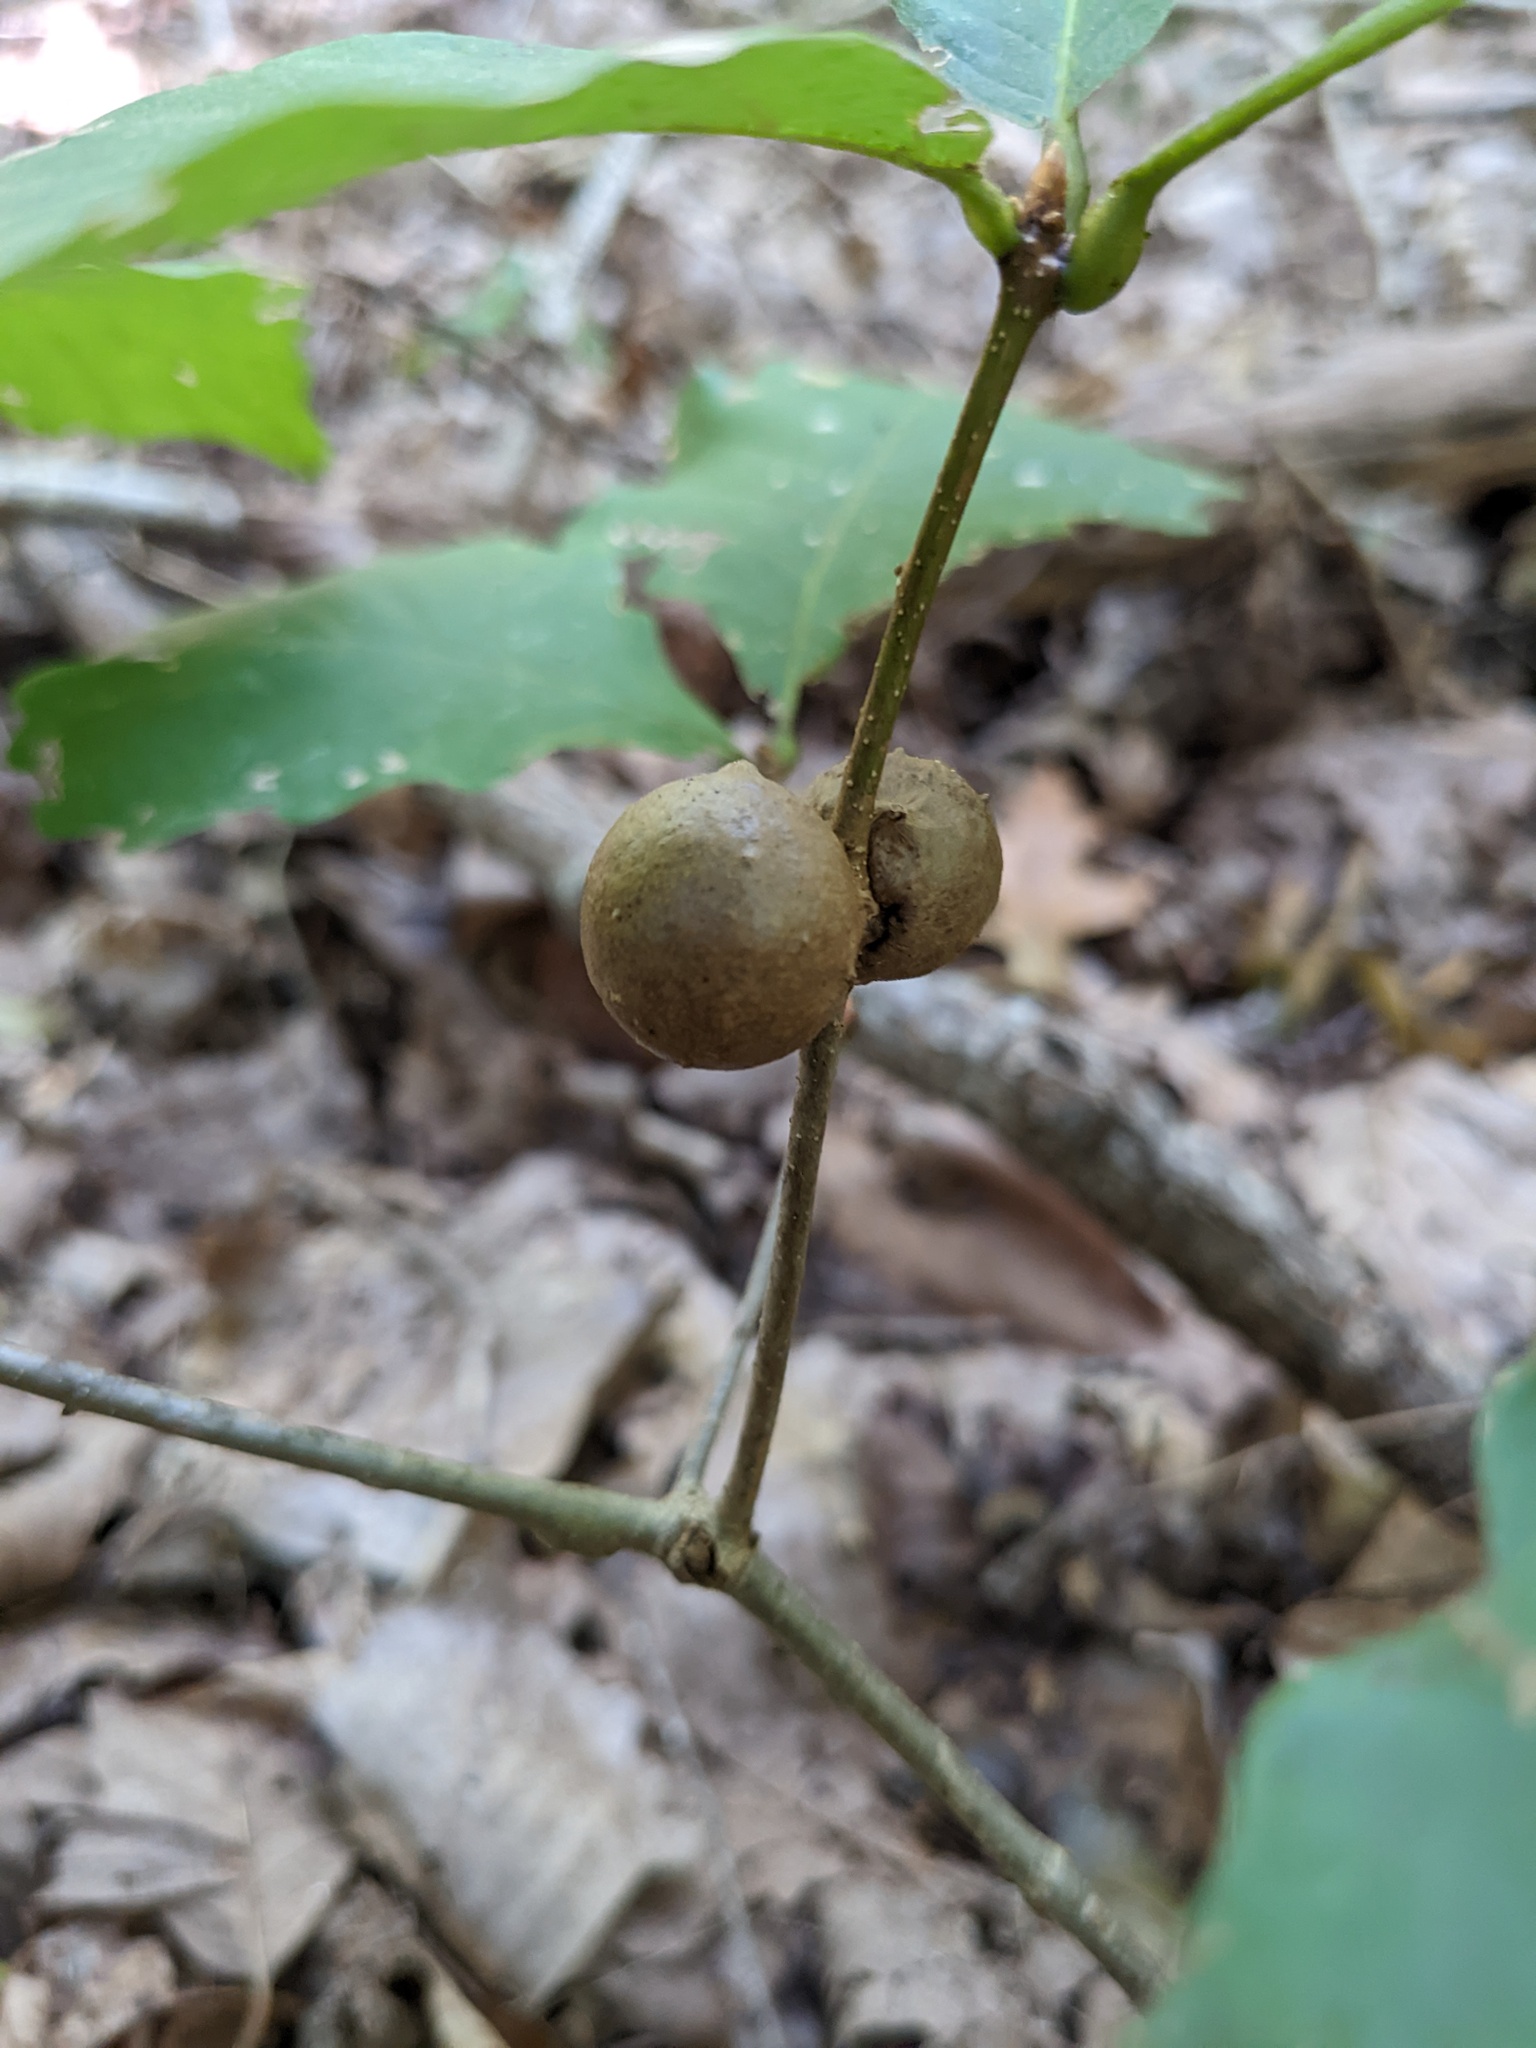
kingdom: Animalia
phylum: Arthropoda
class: Insecta
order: Hymenoptera
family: Cynipidae
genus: Disholcaspis
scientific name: Disholcaspis quercusglobulus
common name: Round bullet gall wasp
